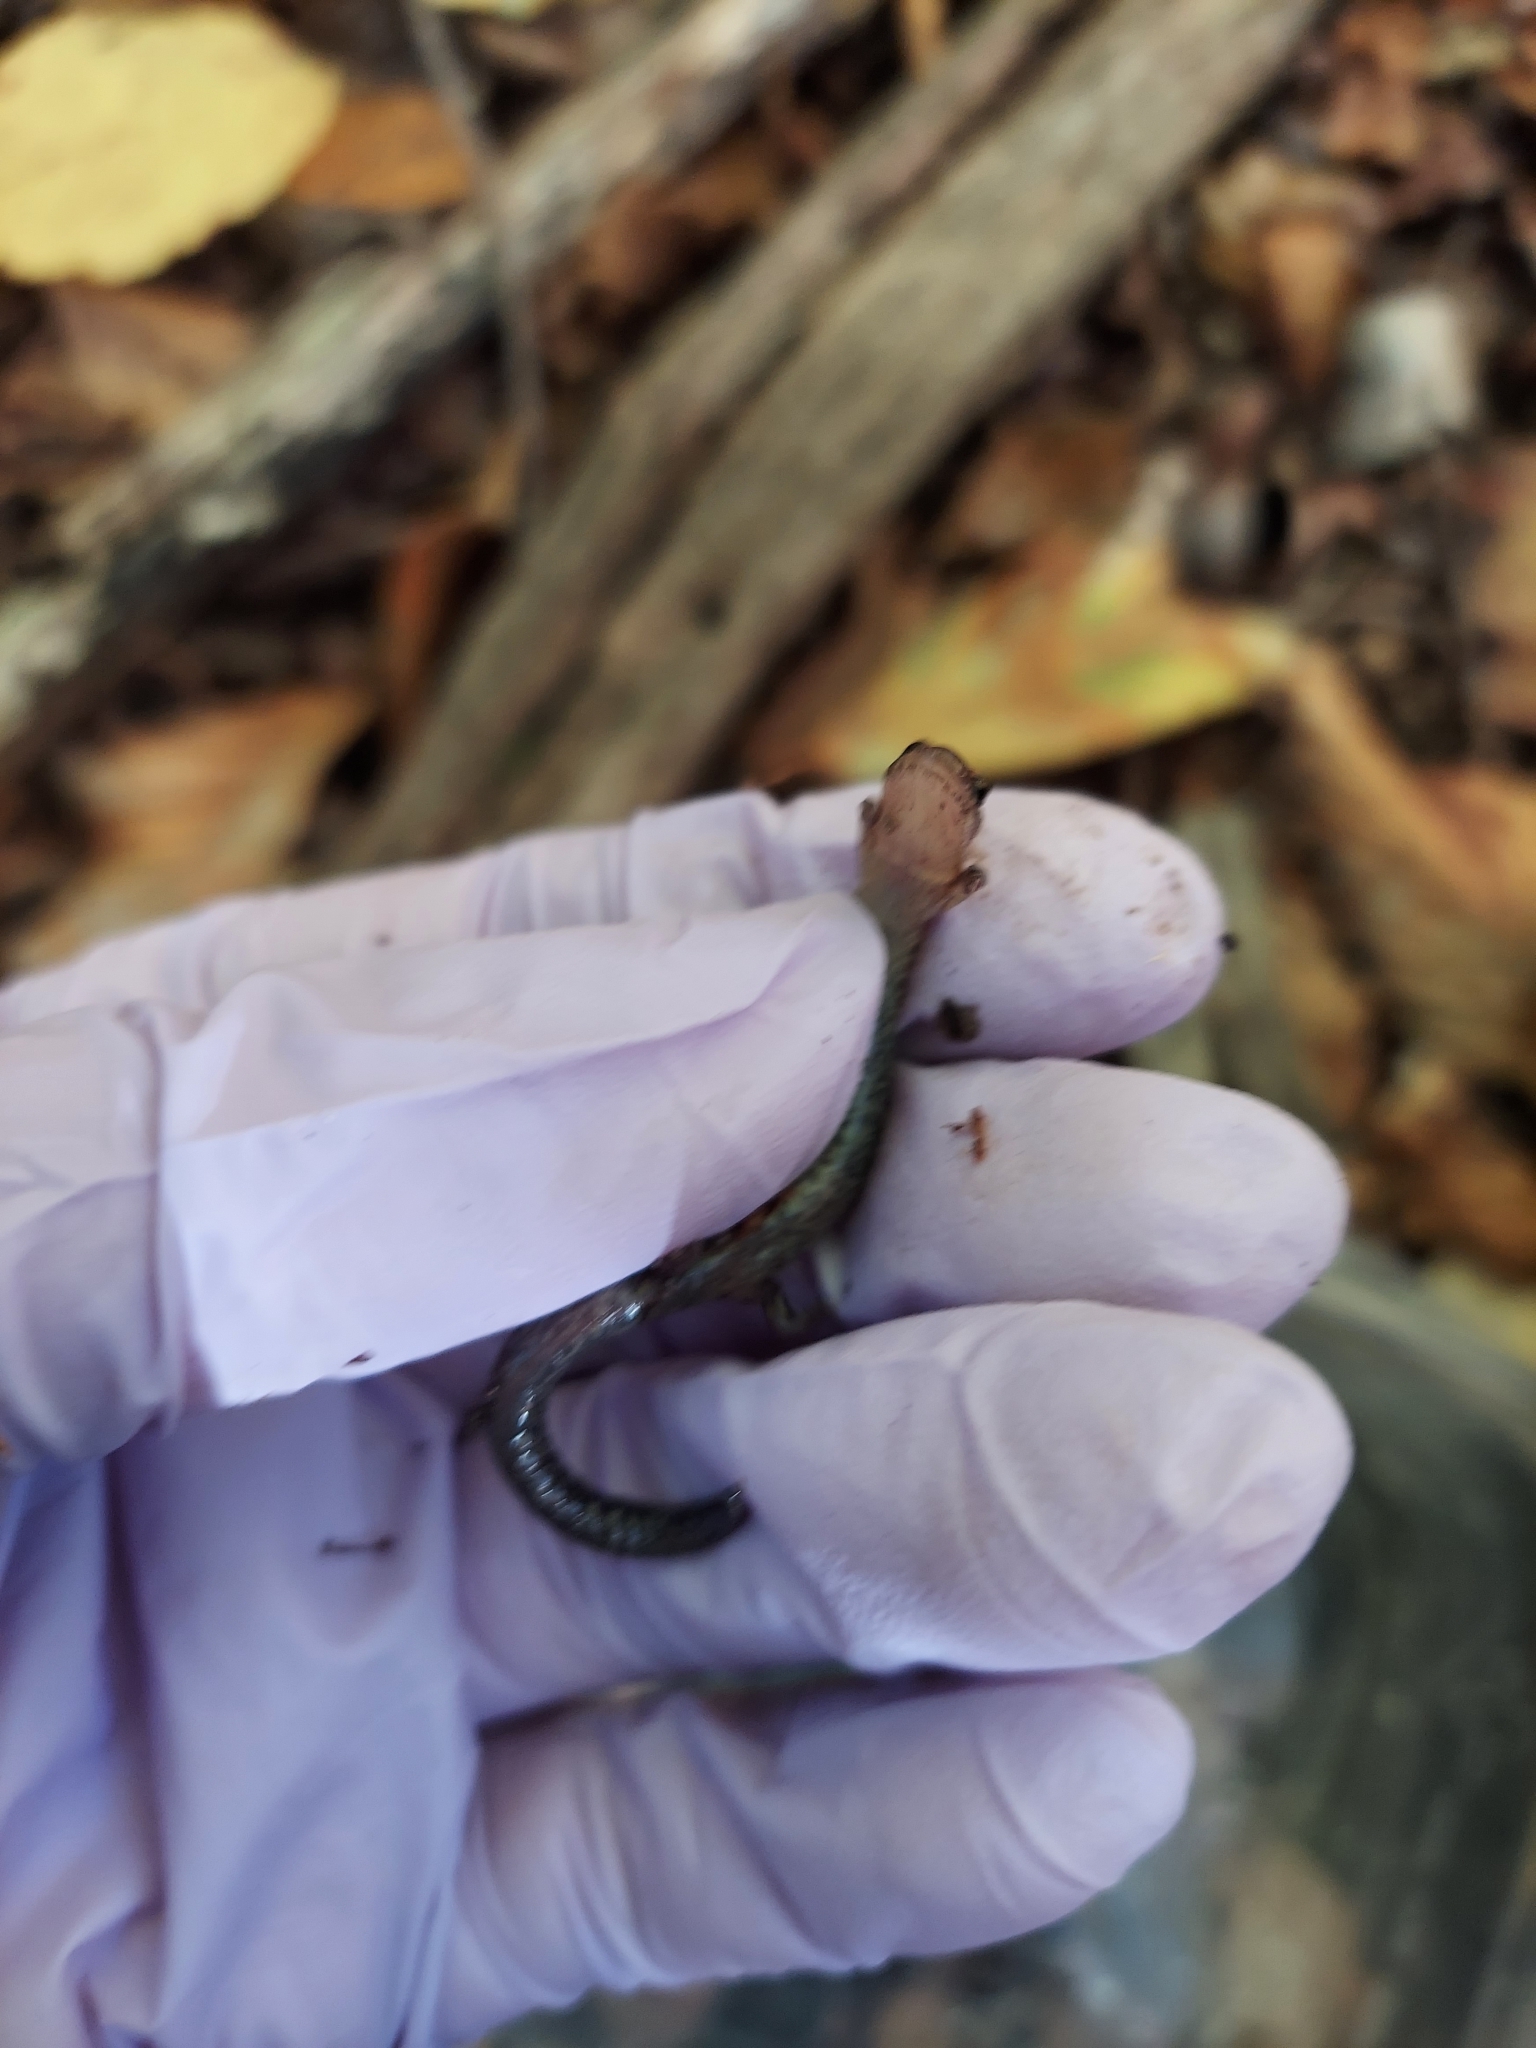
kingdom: Animalia
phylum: Chordata
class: Amphibia
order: Caudata
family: Plethodontidae
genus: Plethodon
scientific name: Plethodon cinereus
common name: Redback salamander
